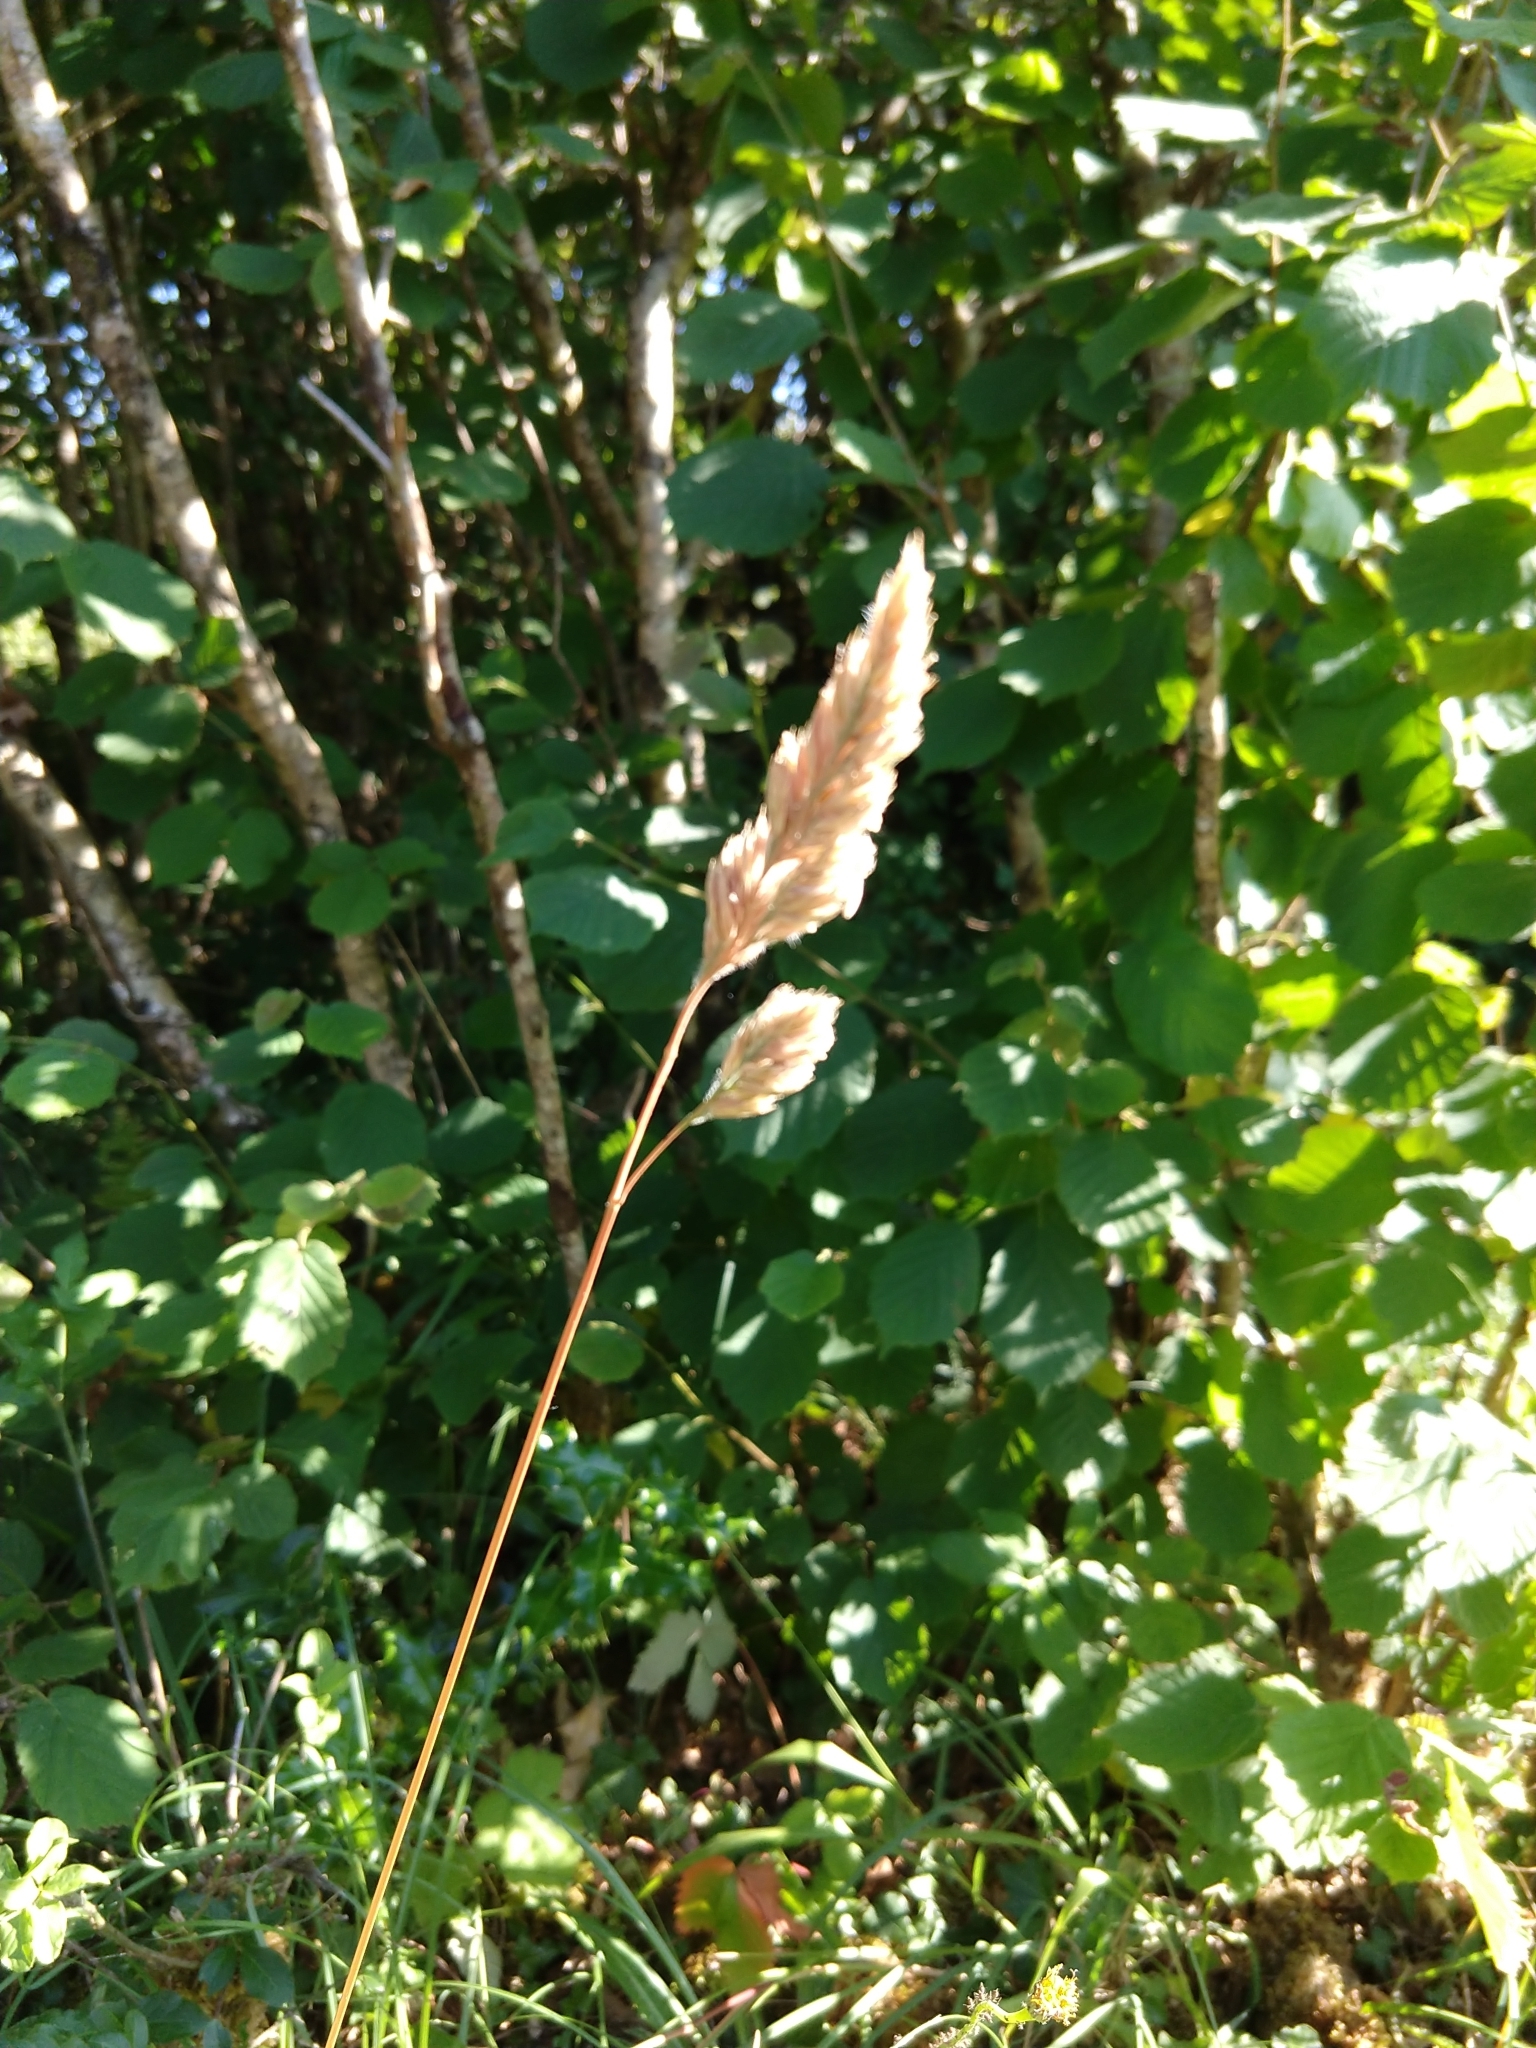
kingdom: Plantae
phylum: Tracheophyta
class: Liliopsida
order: Poales
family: Poaceae
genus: Dactylis
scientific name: Dactylis glomerata
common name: Orchardgrass
